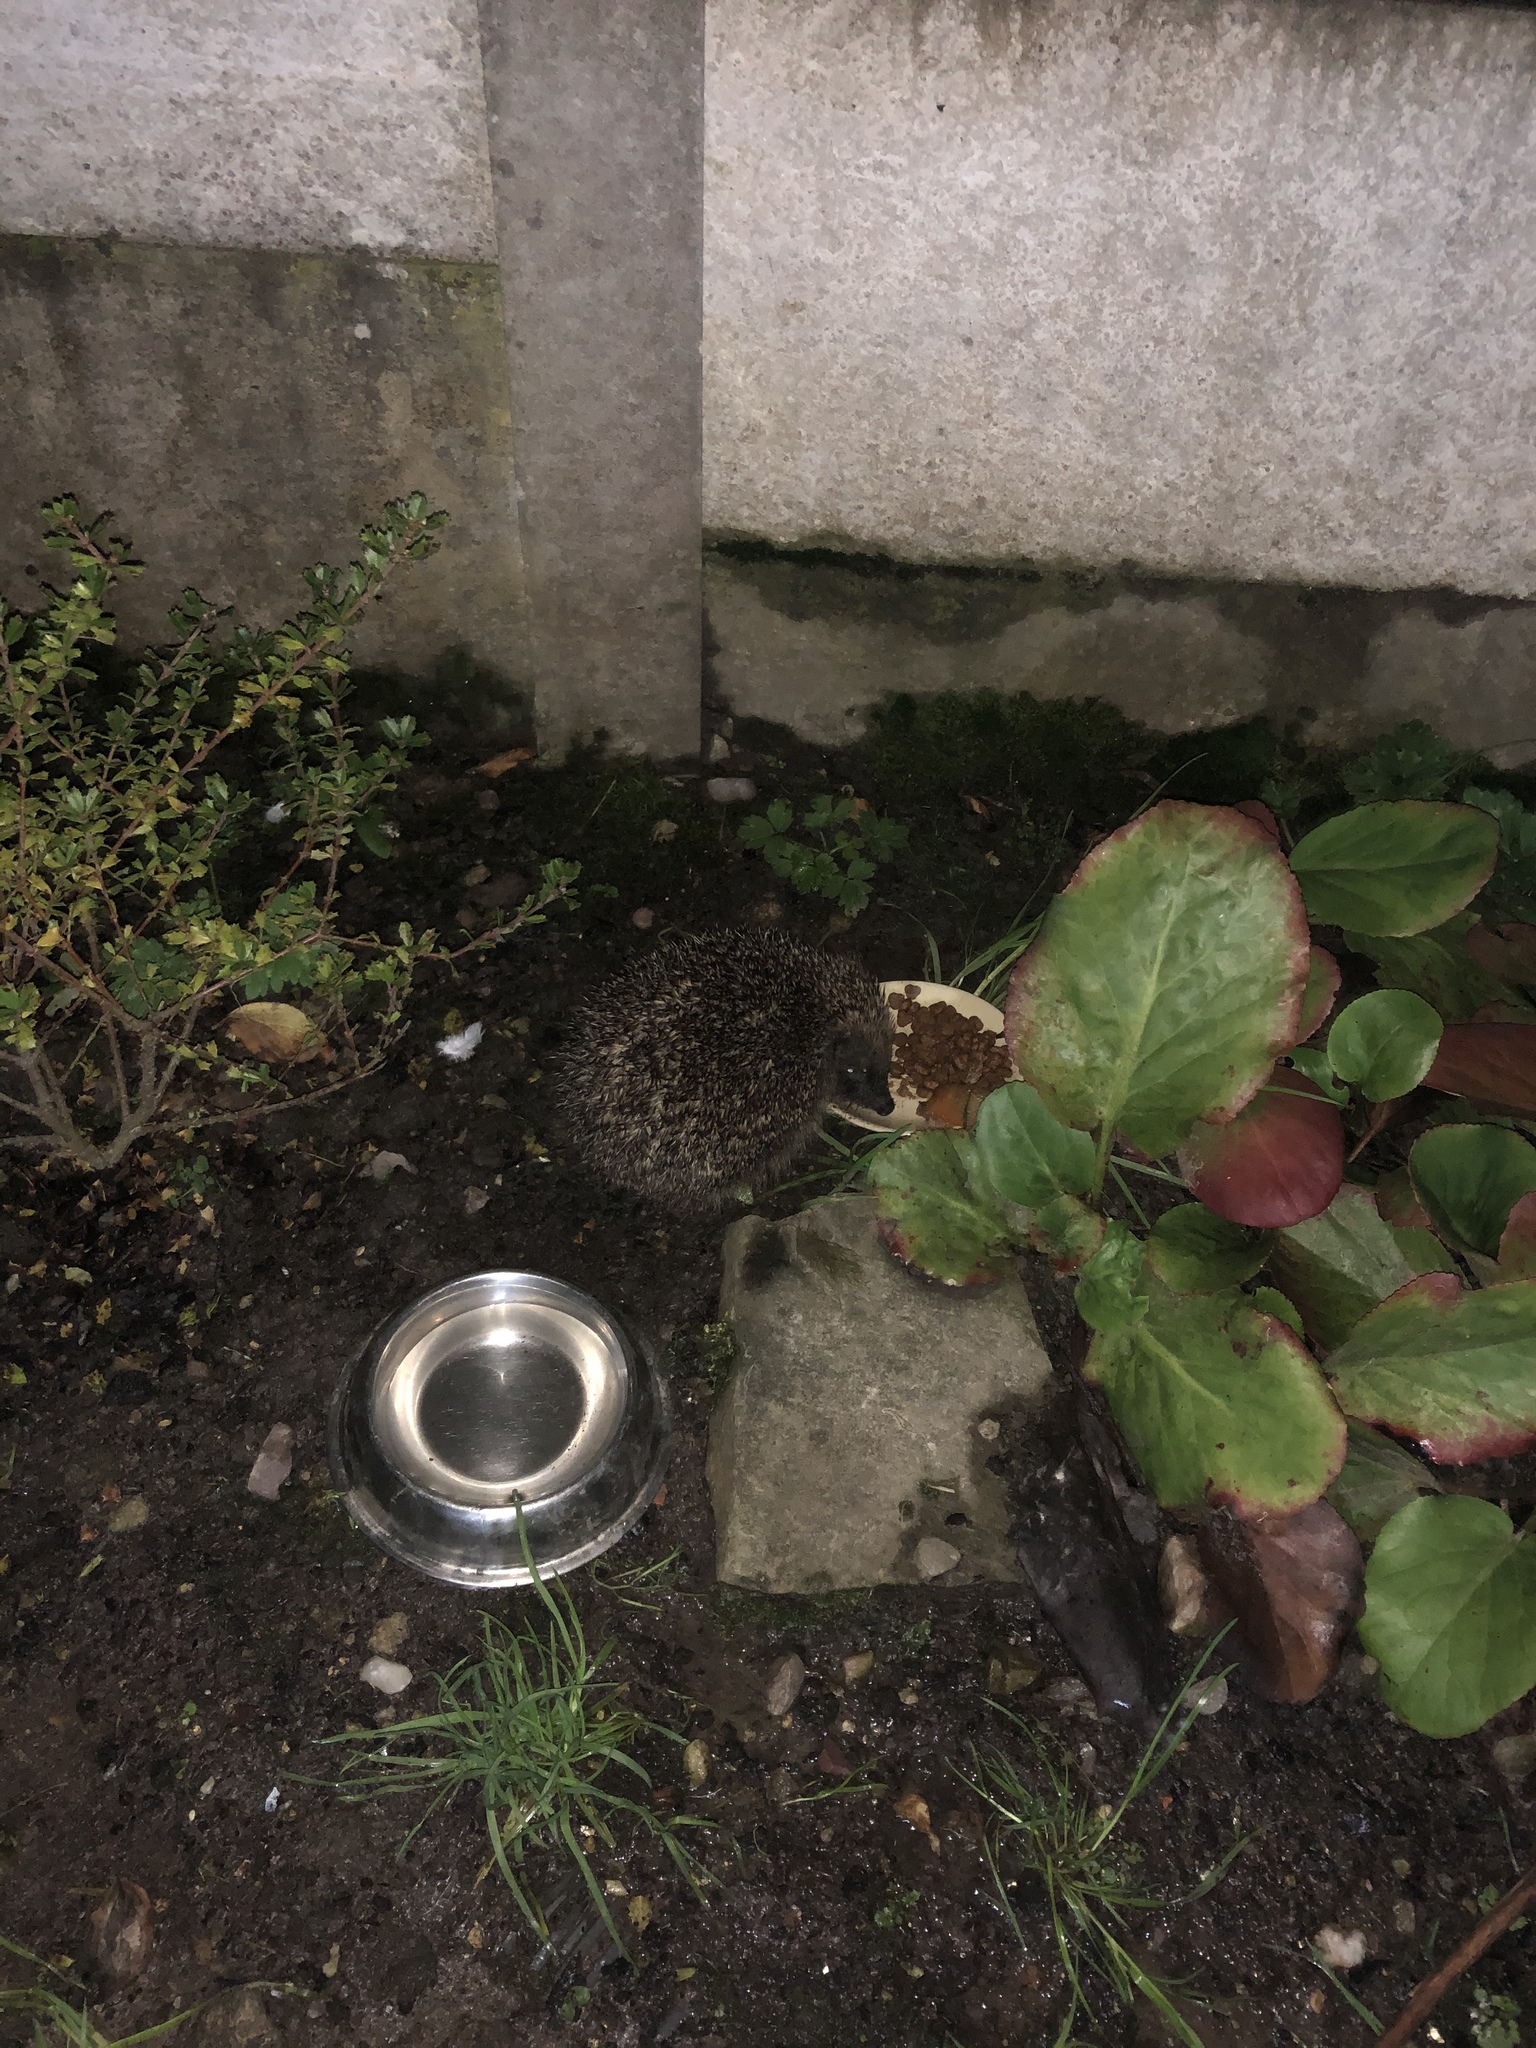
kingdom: Animalia
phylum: Chordata
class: Mammalia
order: Erinaceomorpha
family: Erinaceidae
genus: Erinaceus
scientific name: Erinaceus europaeus
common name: West european hedgehog
